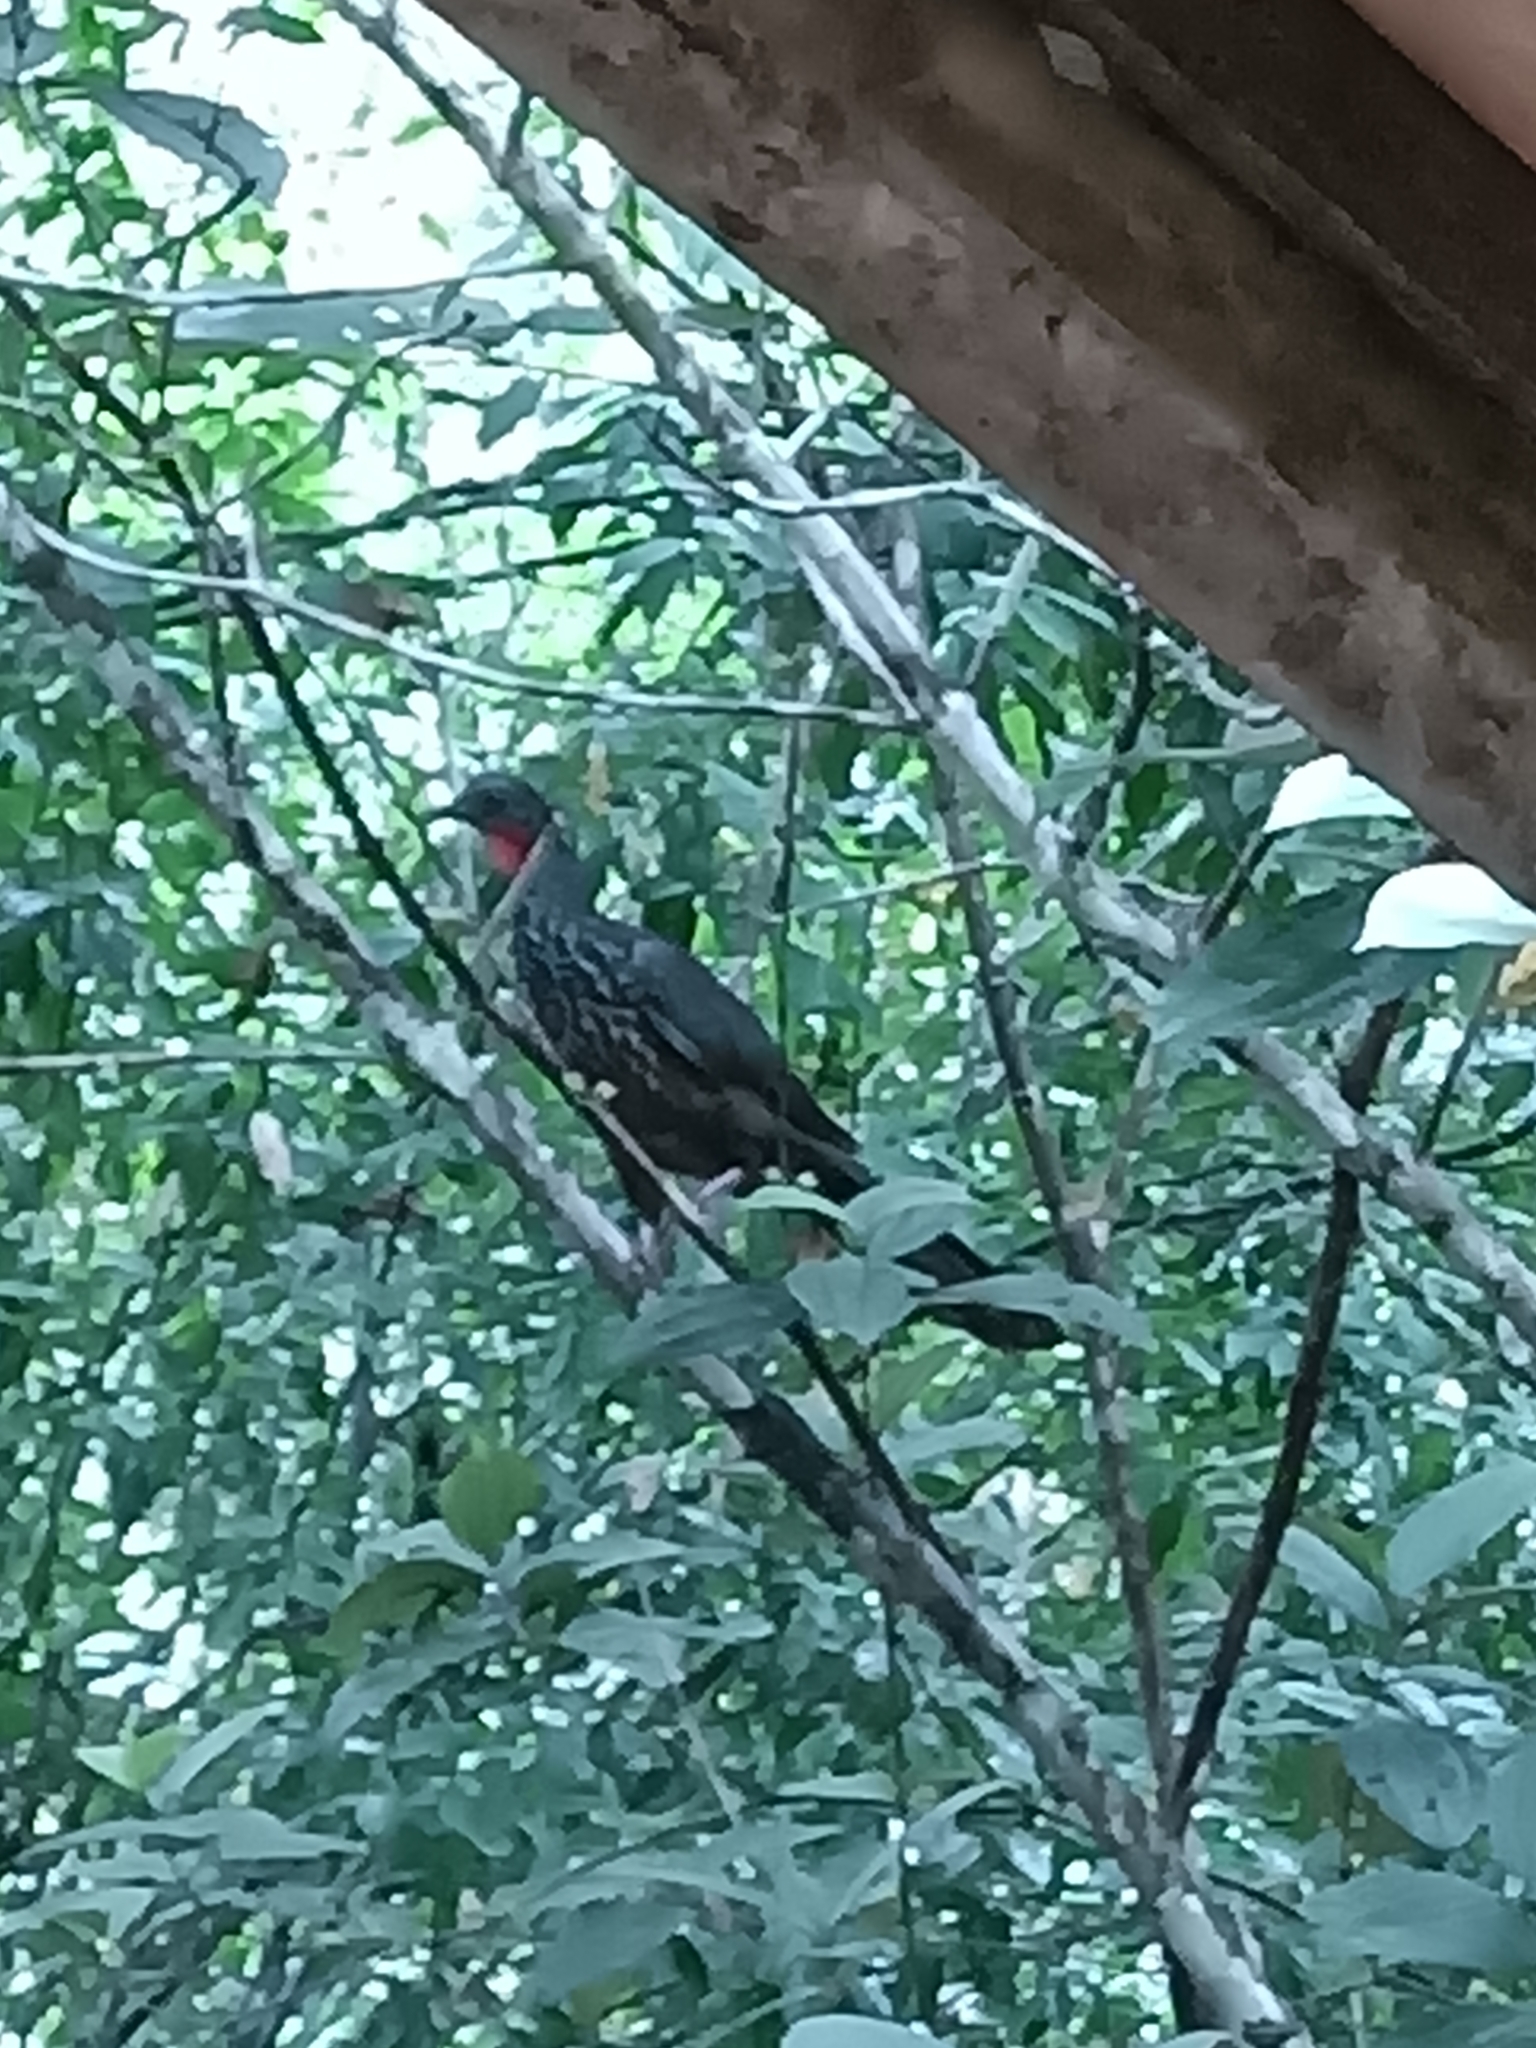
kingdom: Animalia
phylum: Chordata
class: Aves
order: Galliformes
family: Cracidae
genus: Penelope
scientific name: Penelope marail
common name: Marail guan
